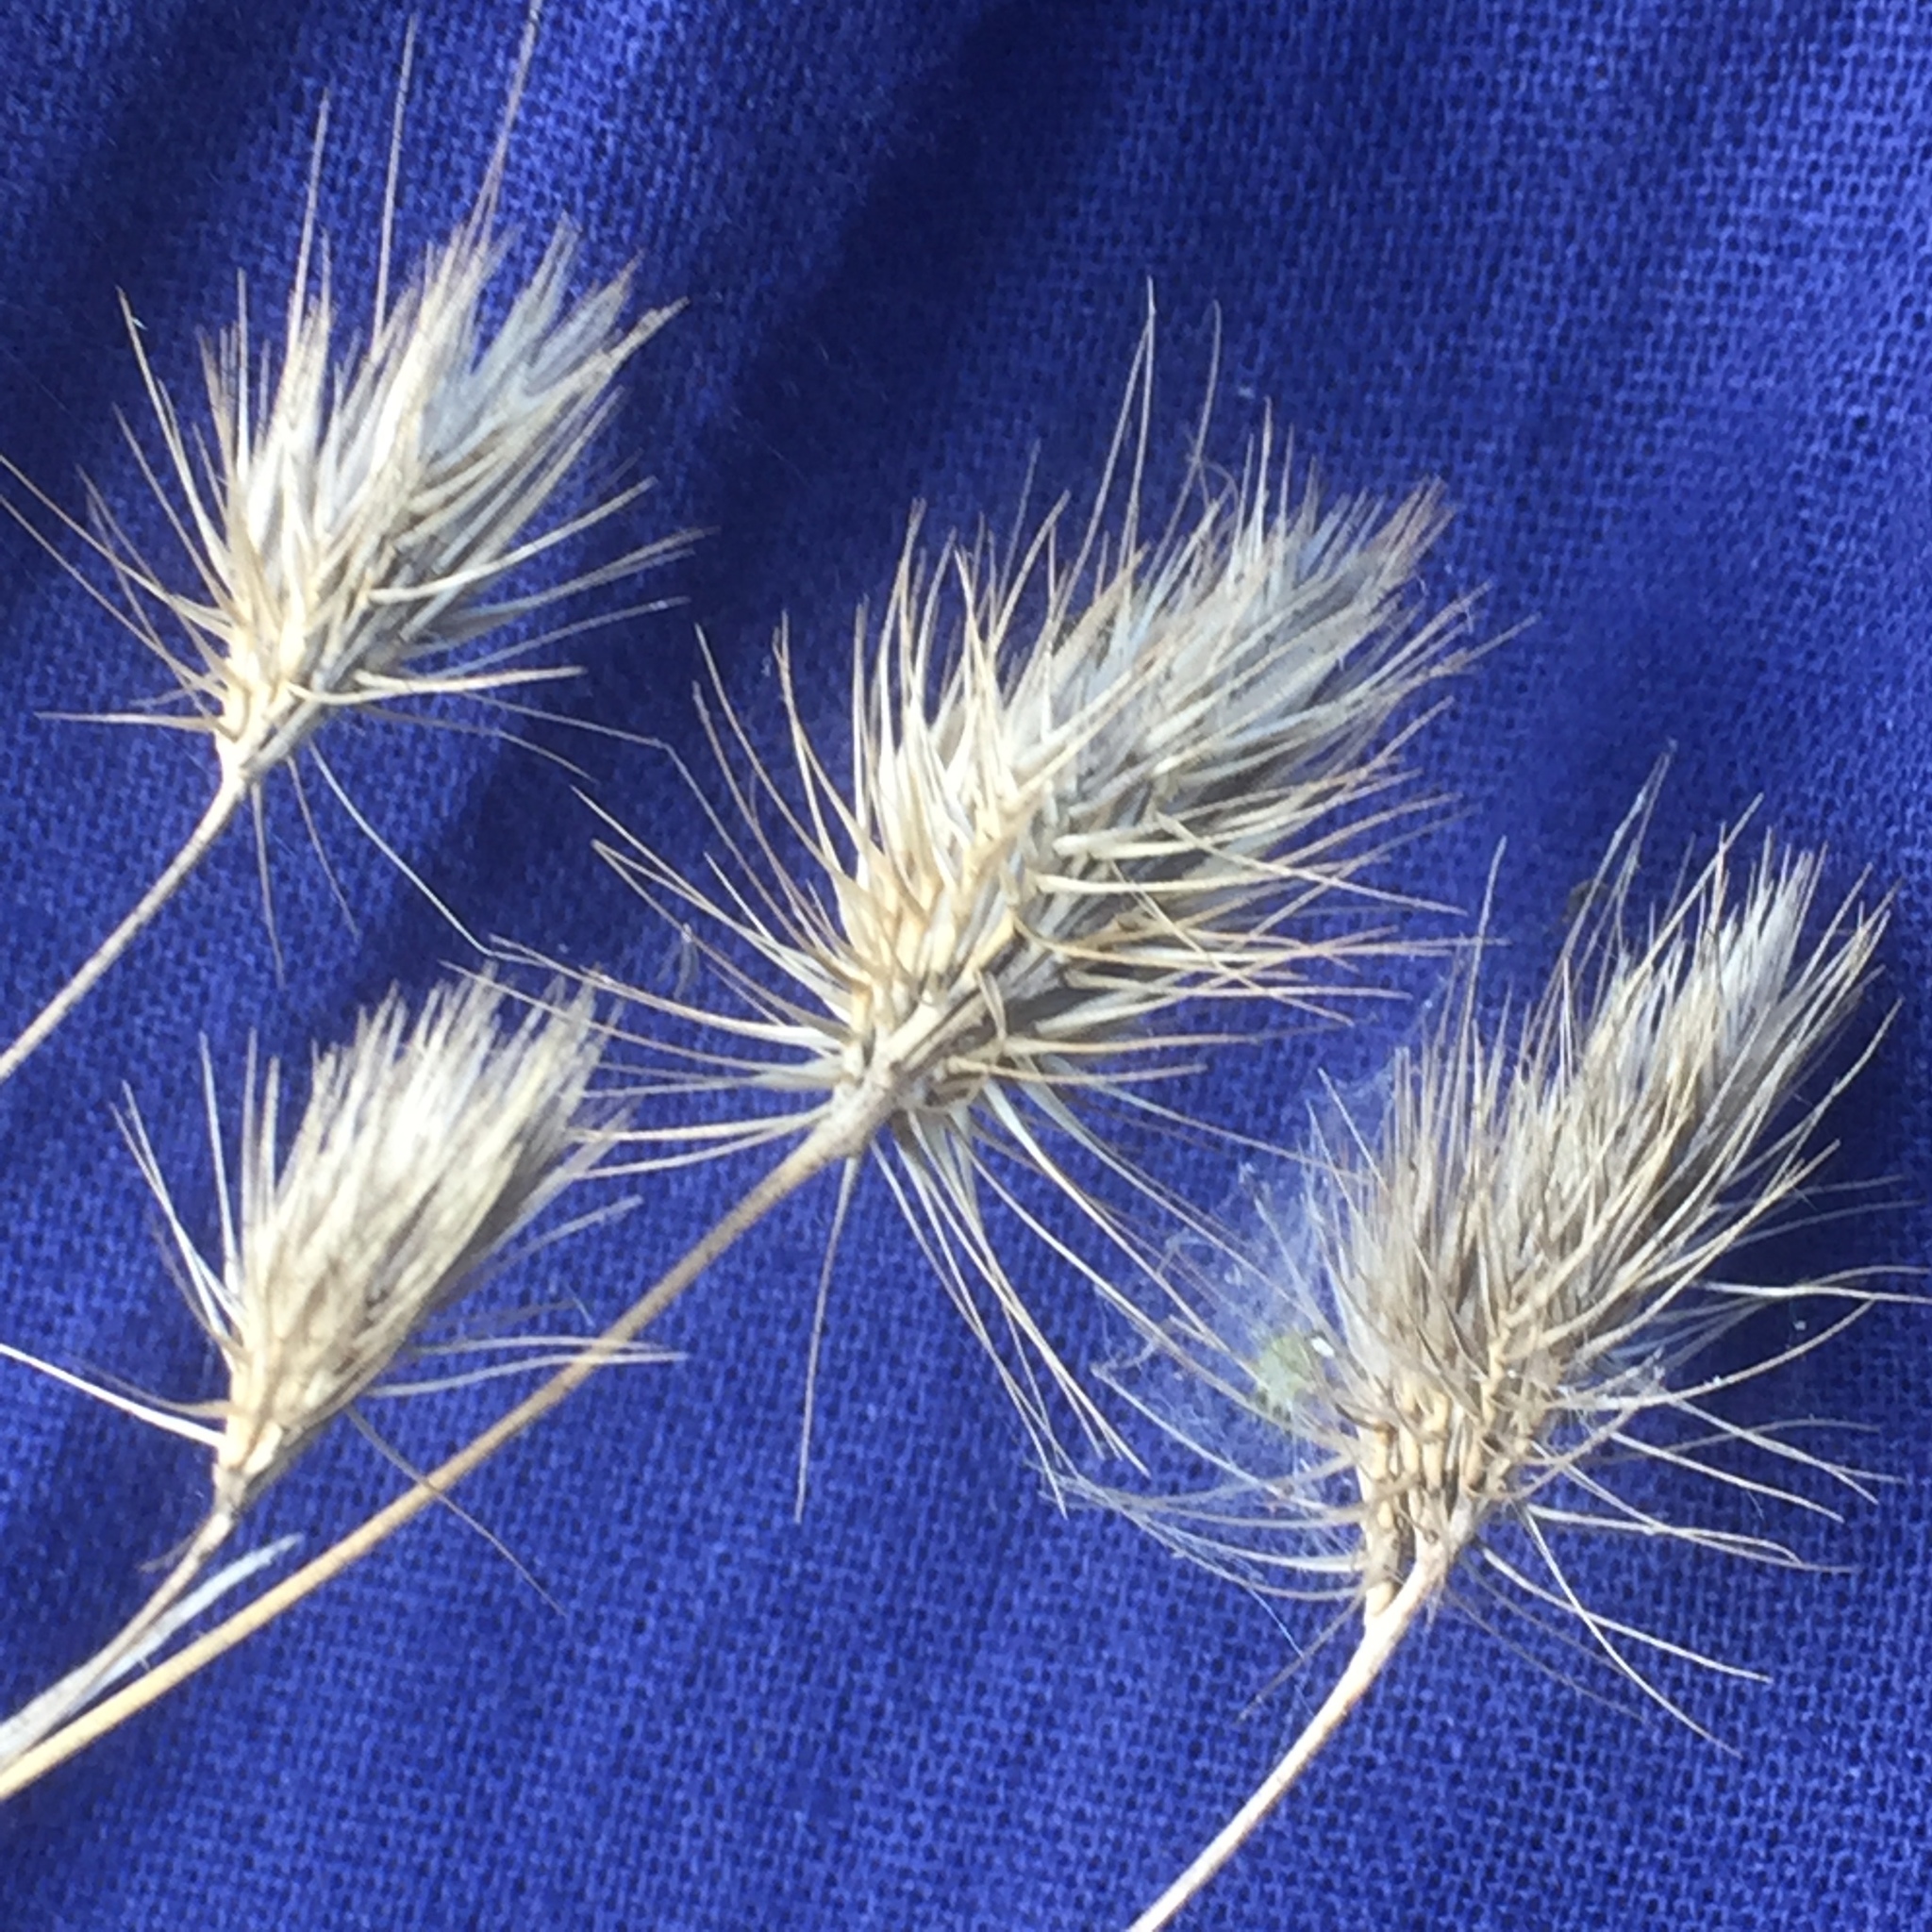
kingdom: Plantae
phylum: Tracheophyta
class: Liliopsida
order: Poales
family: Poaceae
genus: Cynosurus
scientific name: Cynosurus echinatus
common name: Rough dog's-tail
